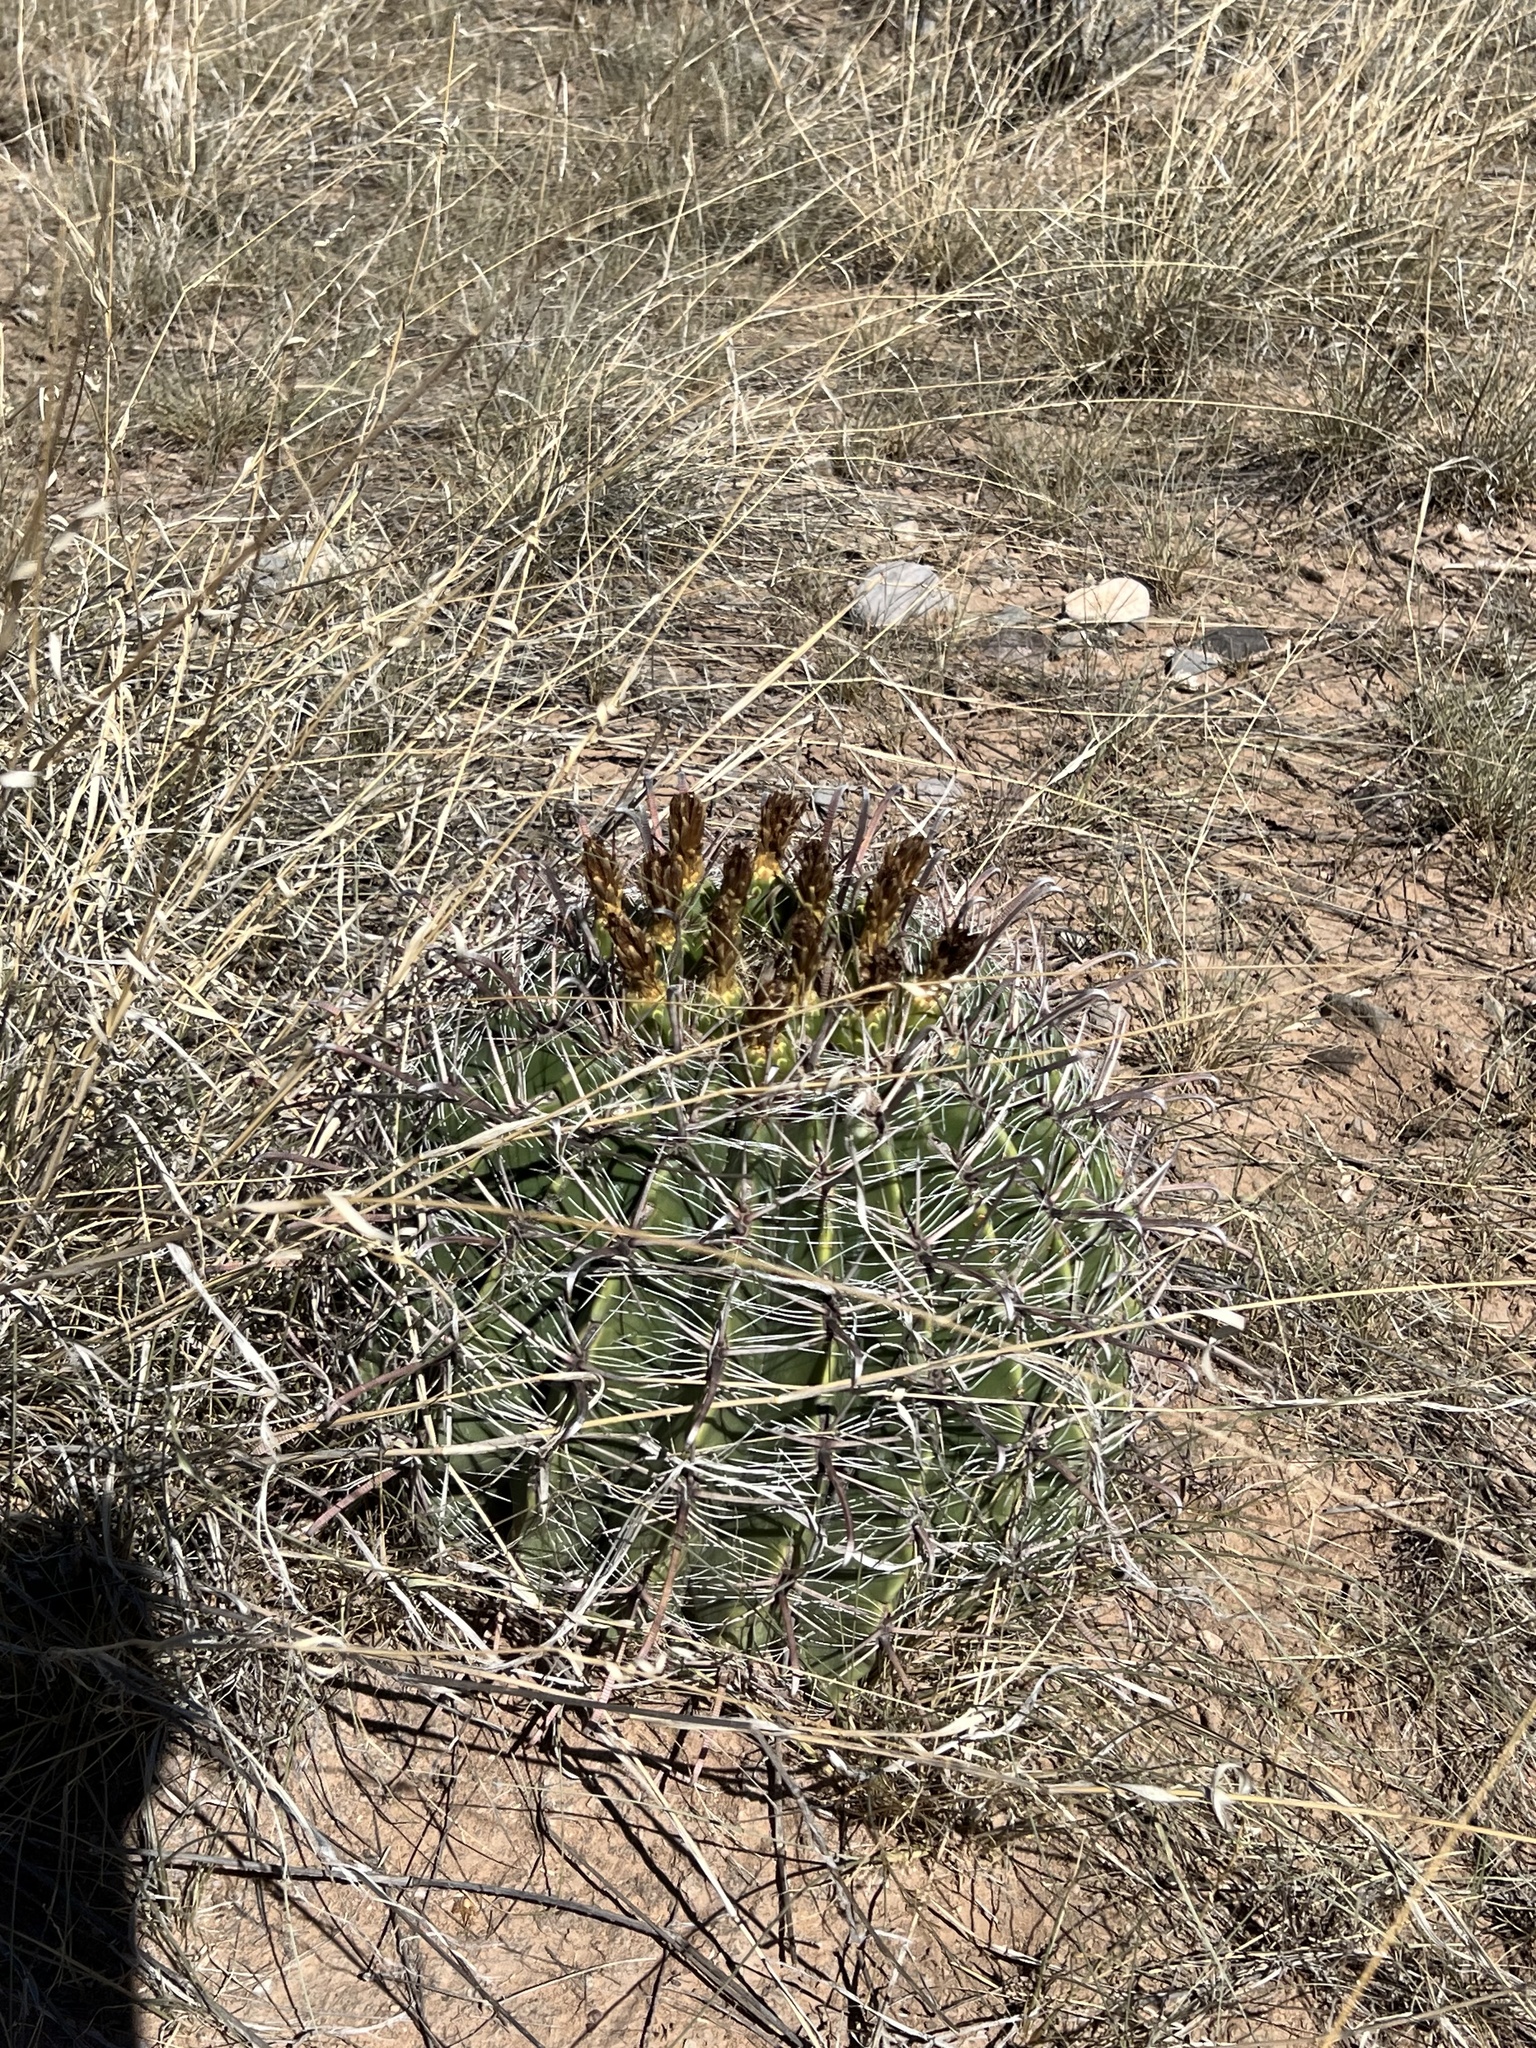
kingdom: Plantae
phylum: Tracheophyta
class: Magnoliopsida
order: Caryophyllales
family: Cactaceae
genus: Ferocactus
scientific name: Ferocactus wislizeni
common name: Candy barrel cactus
